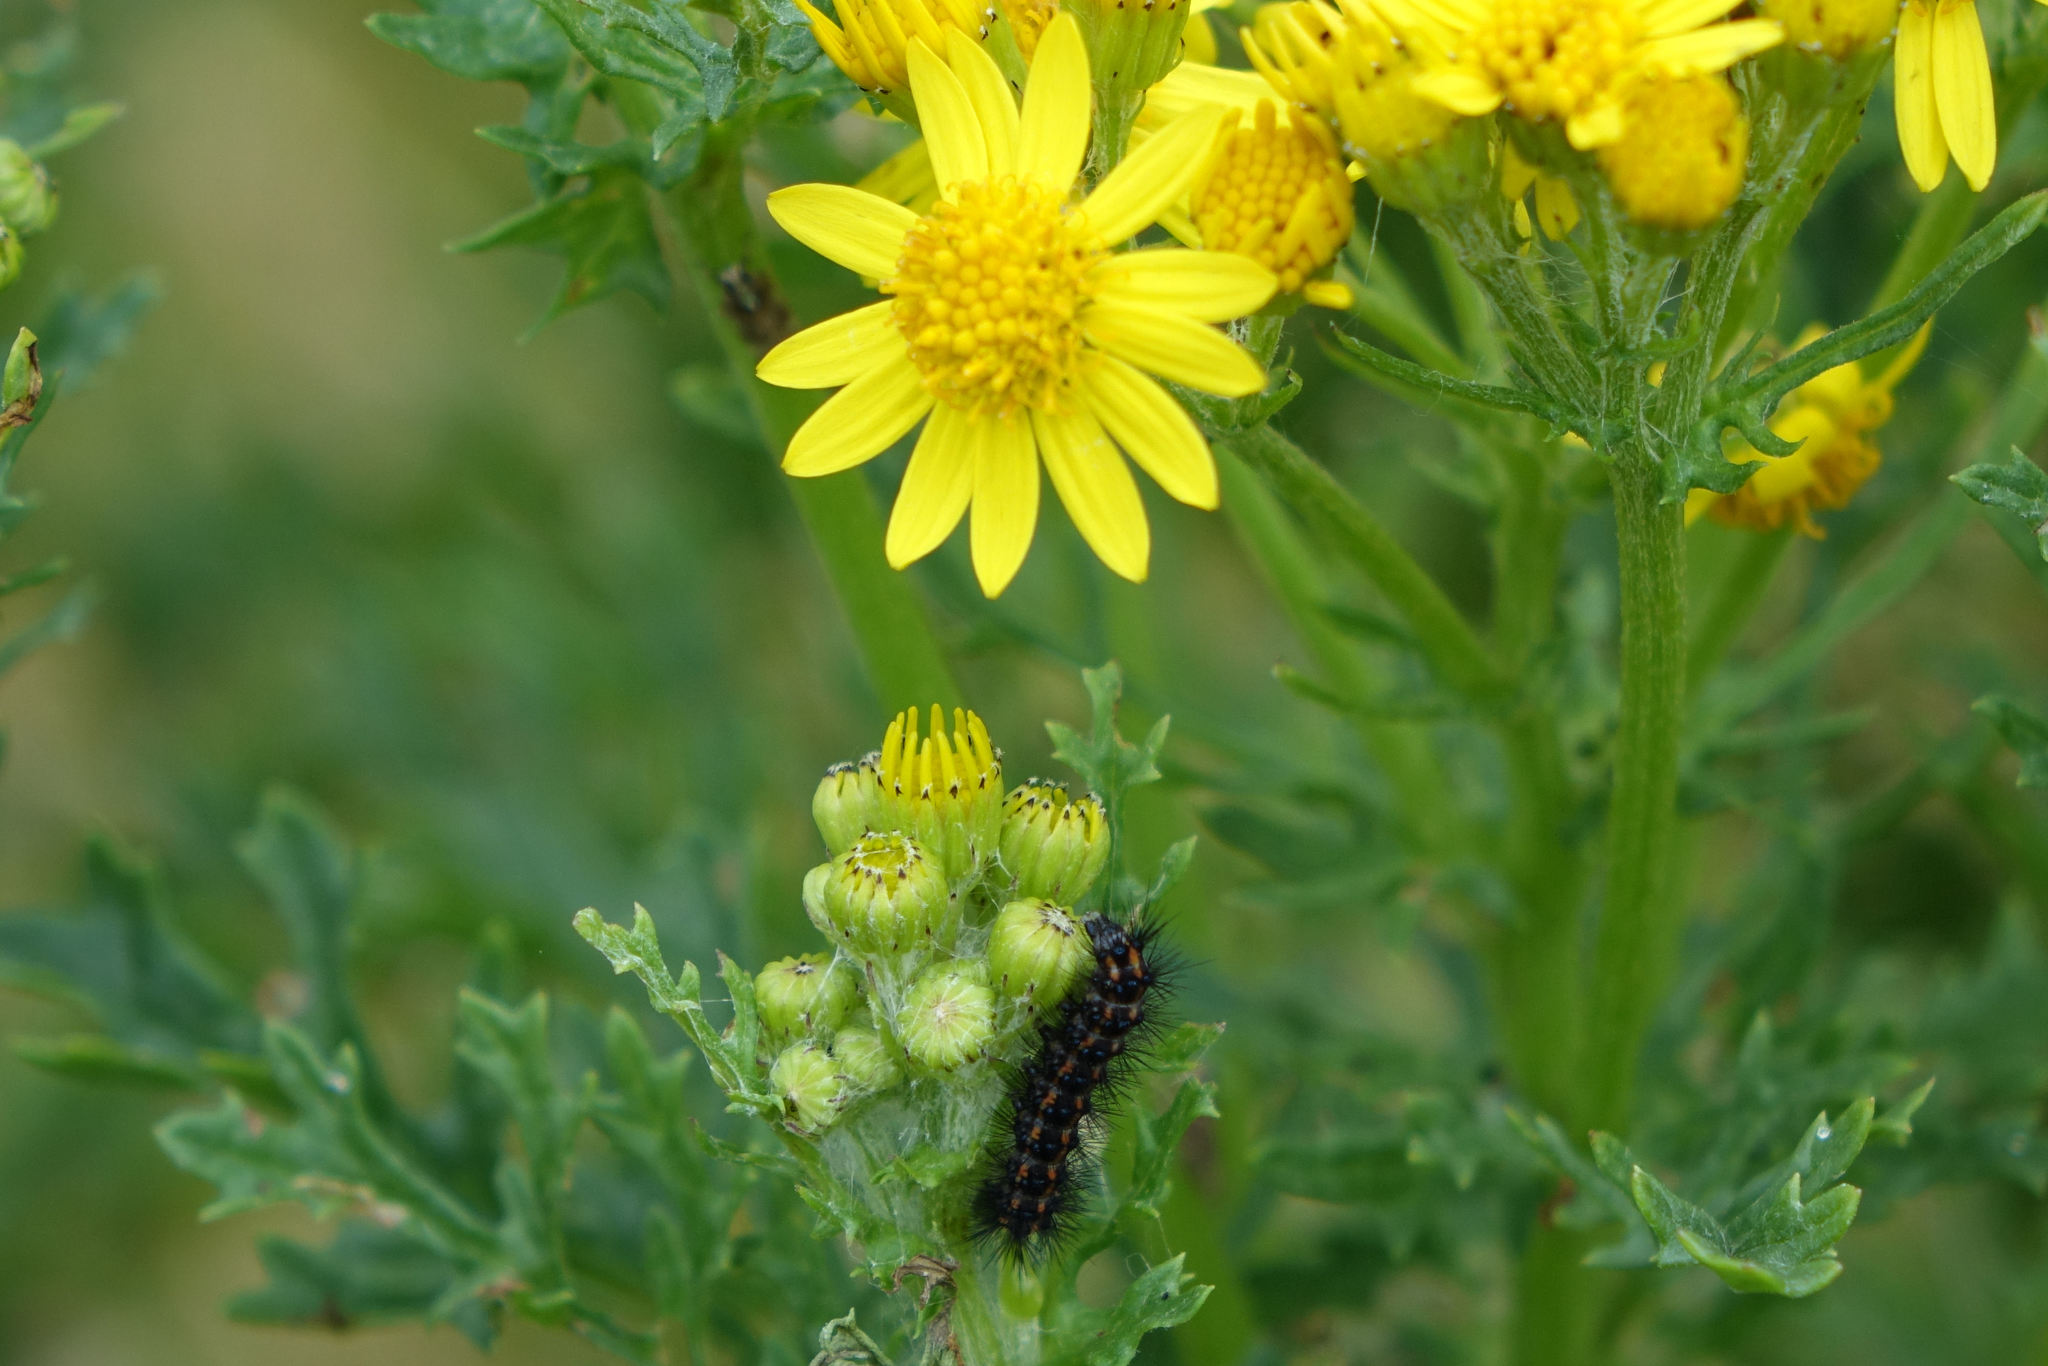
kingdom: Animalia
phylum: Arthropoda
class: Insecta
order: Lepidoptera
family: Erebidae
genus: Nyctemera
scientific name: Nyctemera annulatum
